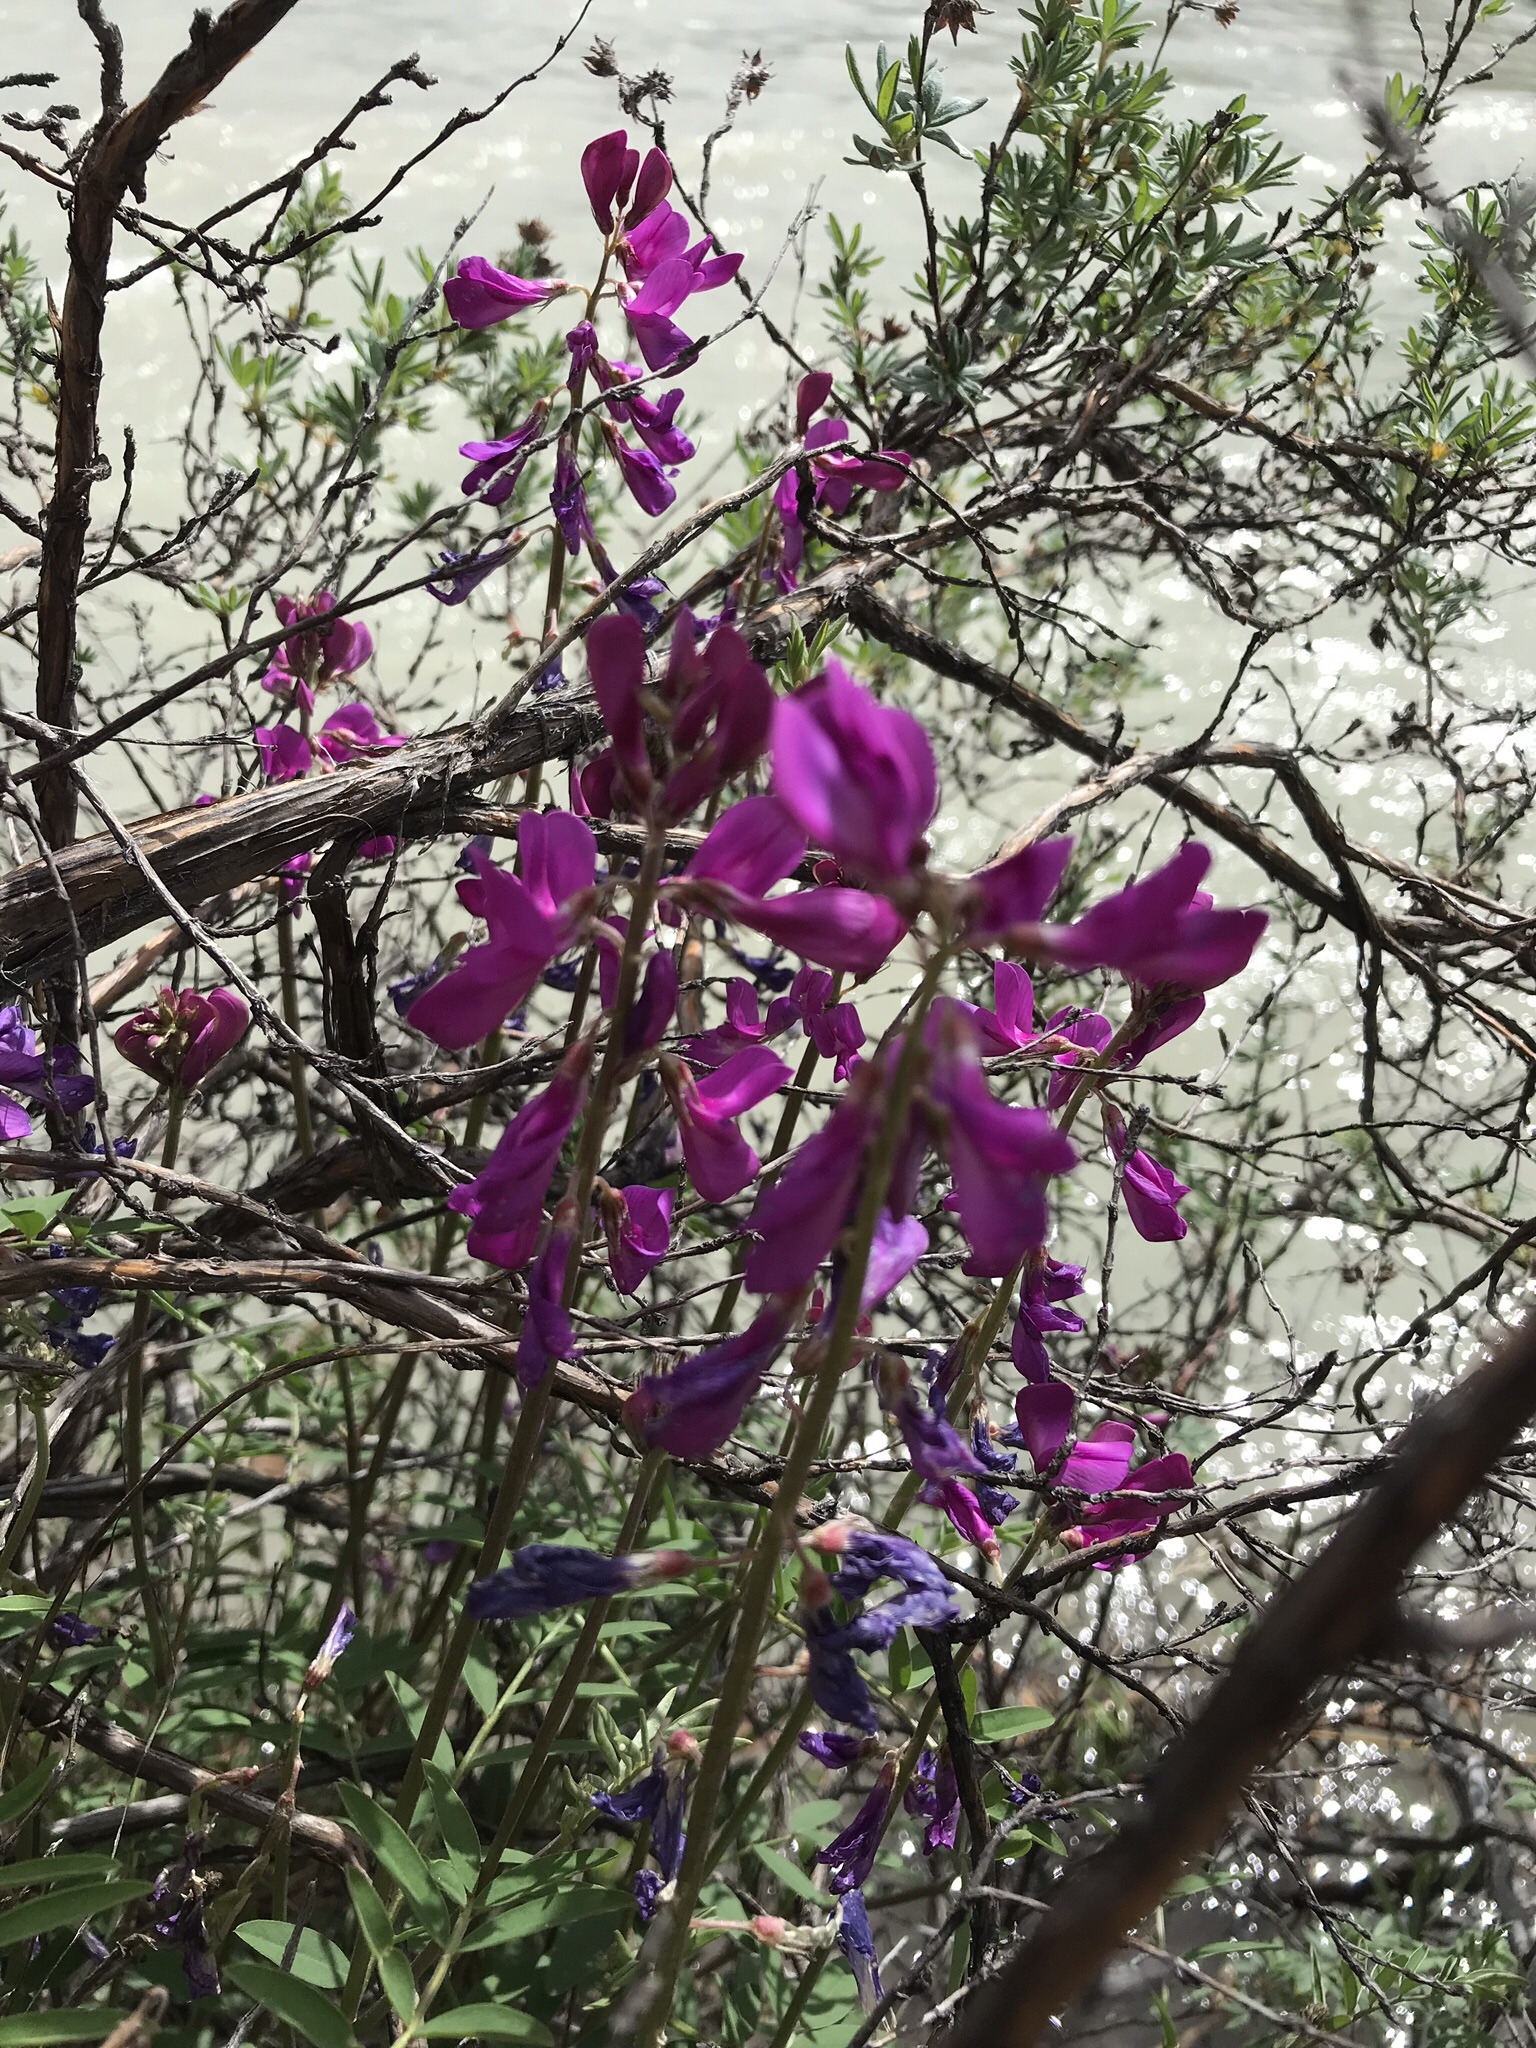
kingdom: Plantae
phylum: Tracheophyta
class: Magnoliopsida
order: Fabales
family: Fabaceae
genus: Hedysarum
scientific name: Hedysarum boreale
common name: Northern sweet-vetch
